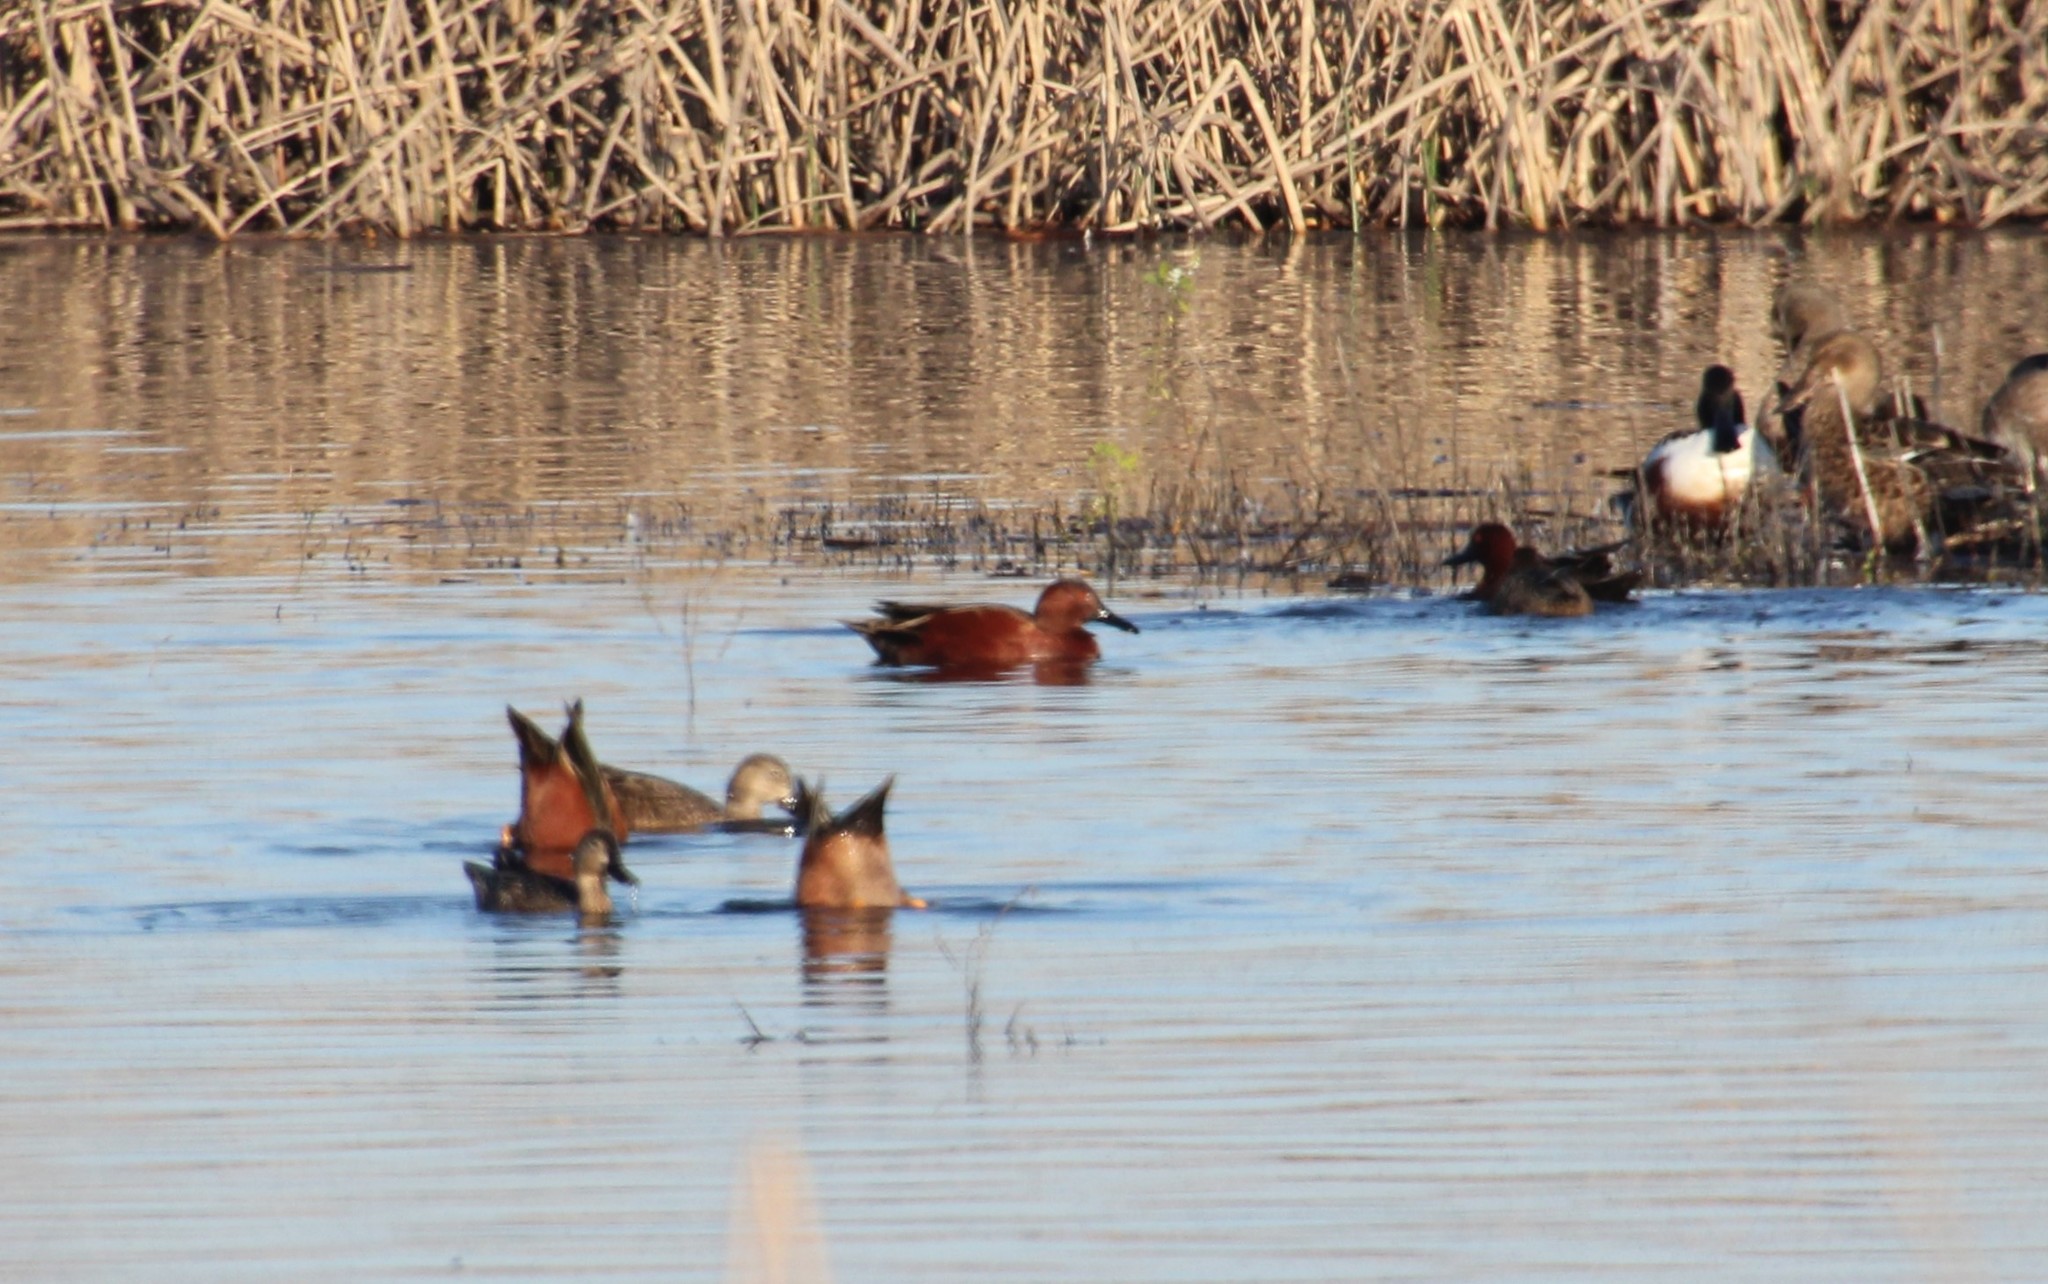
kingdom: Animalia
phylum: Chordata
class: Aves
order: Anseriformes
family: Anatidae
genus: Spatula
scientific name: Spatula cyanoptera
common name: Cinnamon teal
